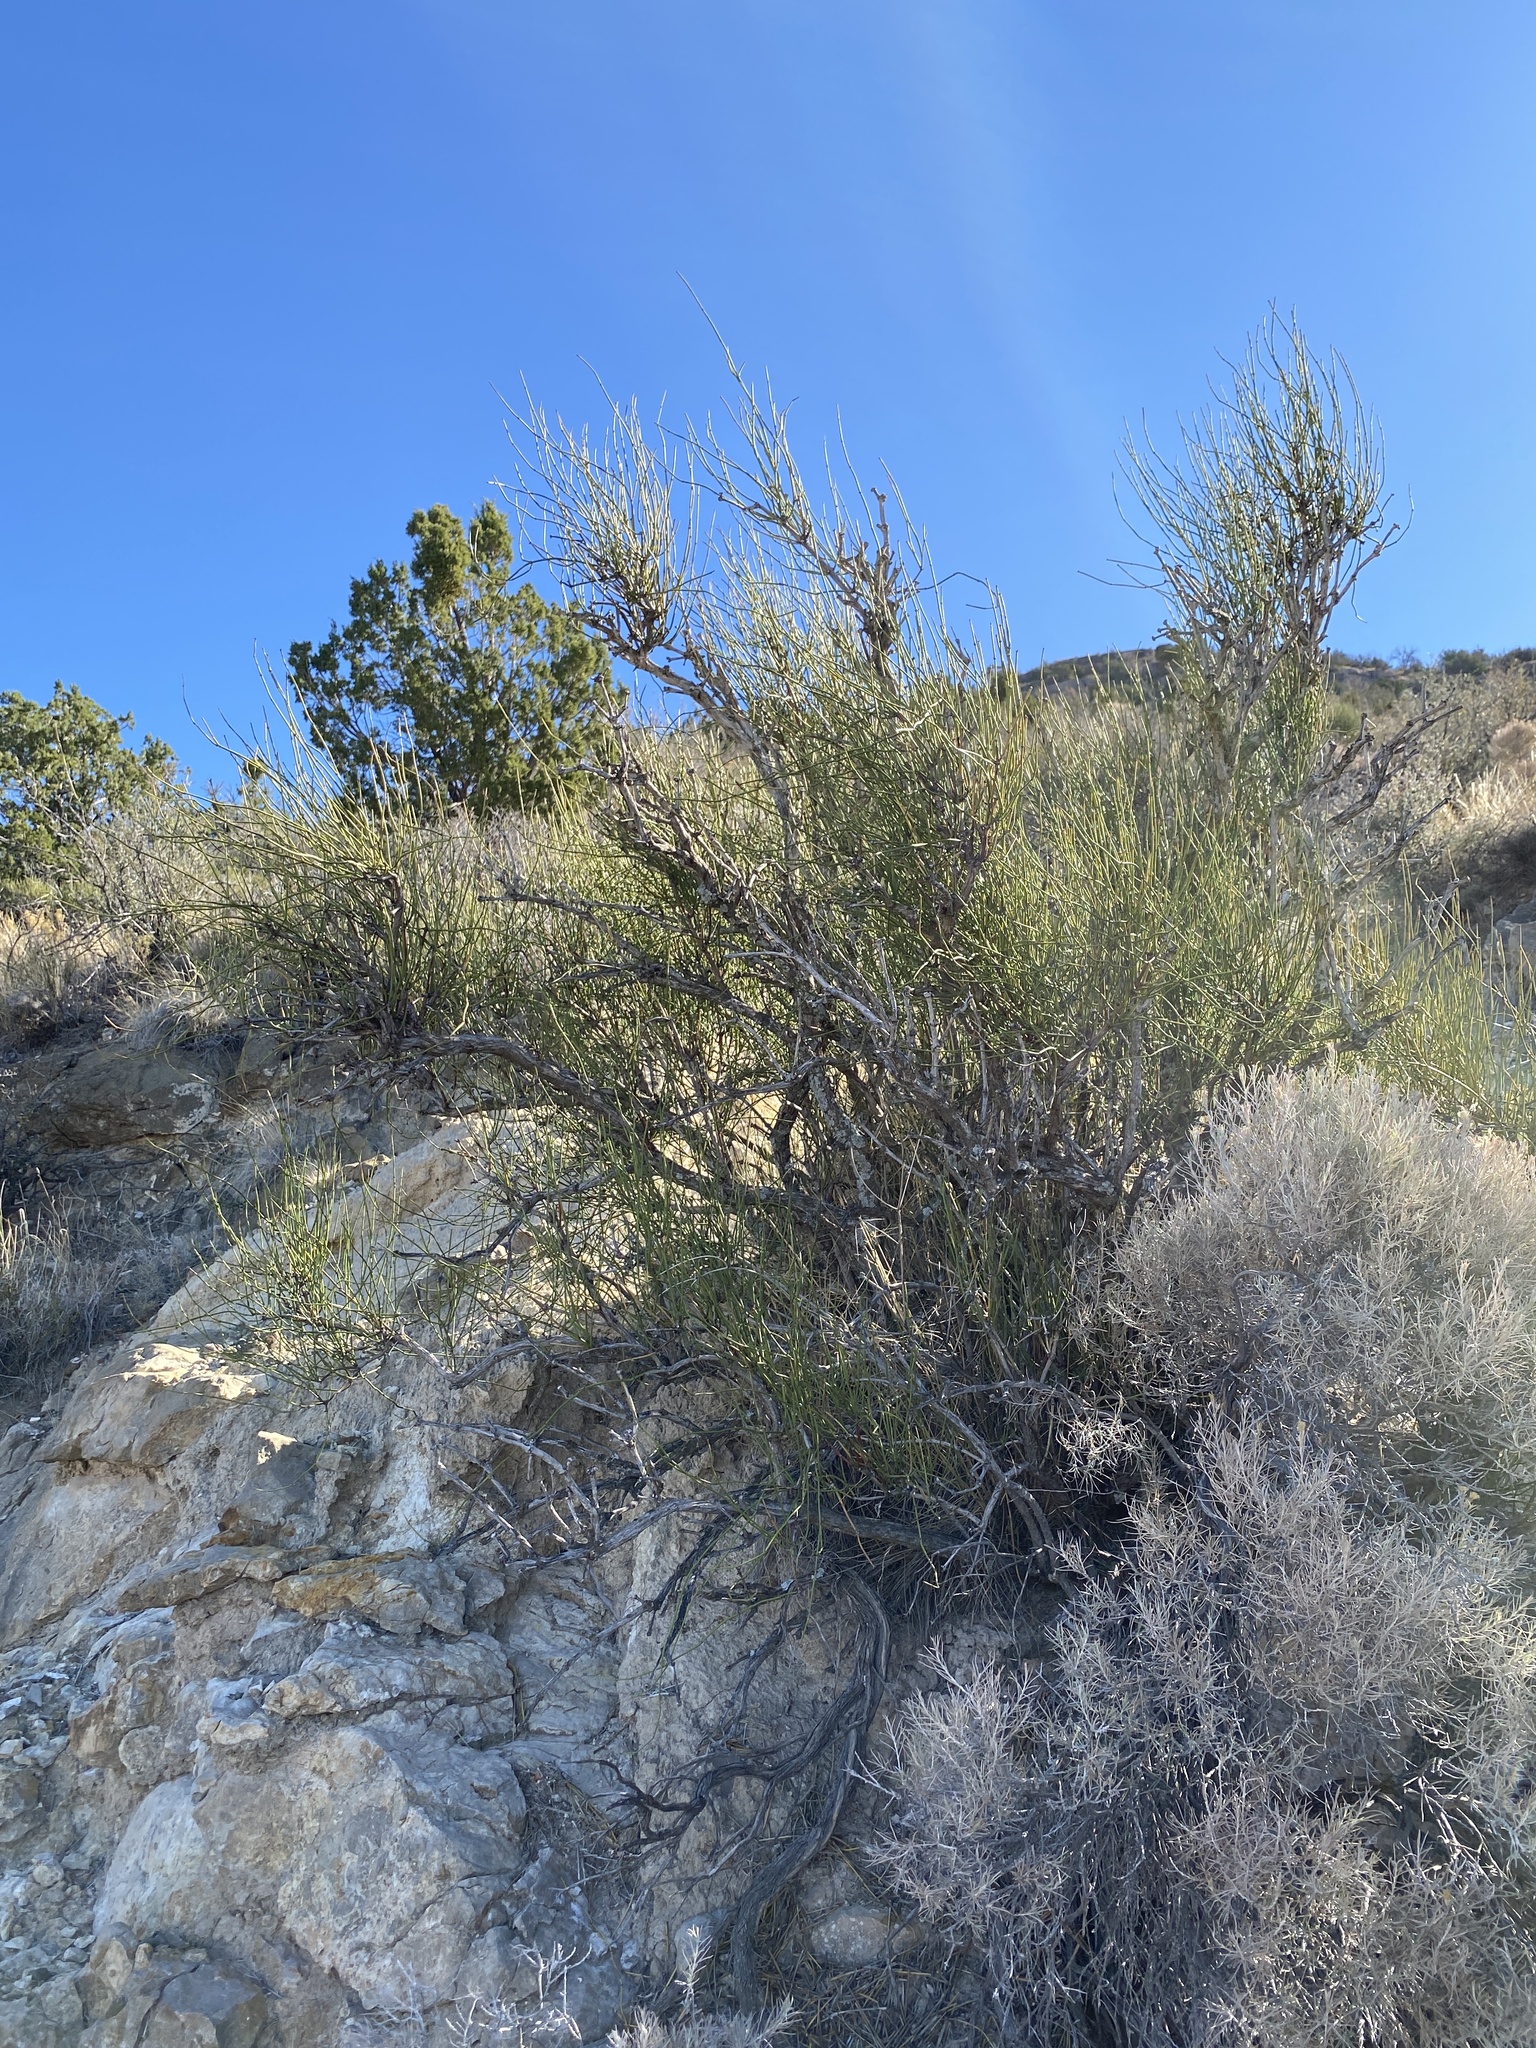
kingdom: Plantae
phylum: Tracheophyta
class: Gnetopsida
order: Ephedrales
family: Ephedraceae
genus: Ephedra
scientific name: Ephedra trifurca
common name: Mexican-tea
